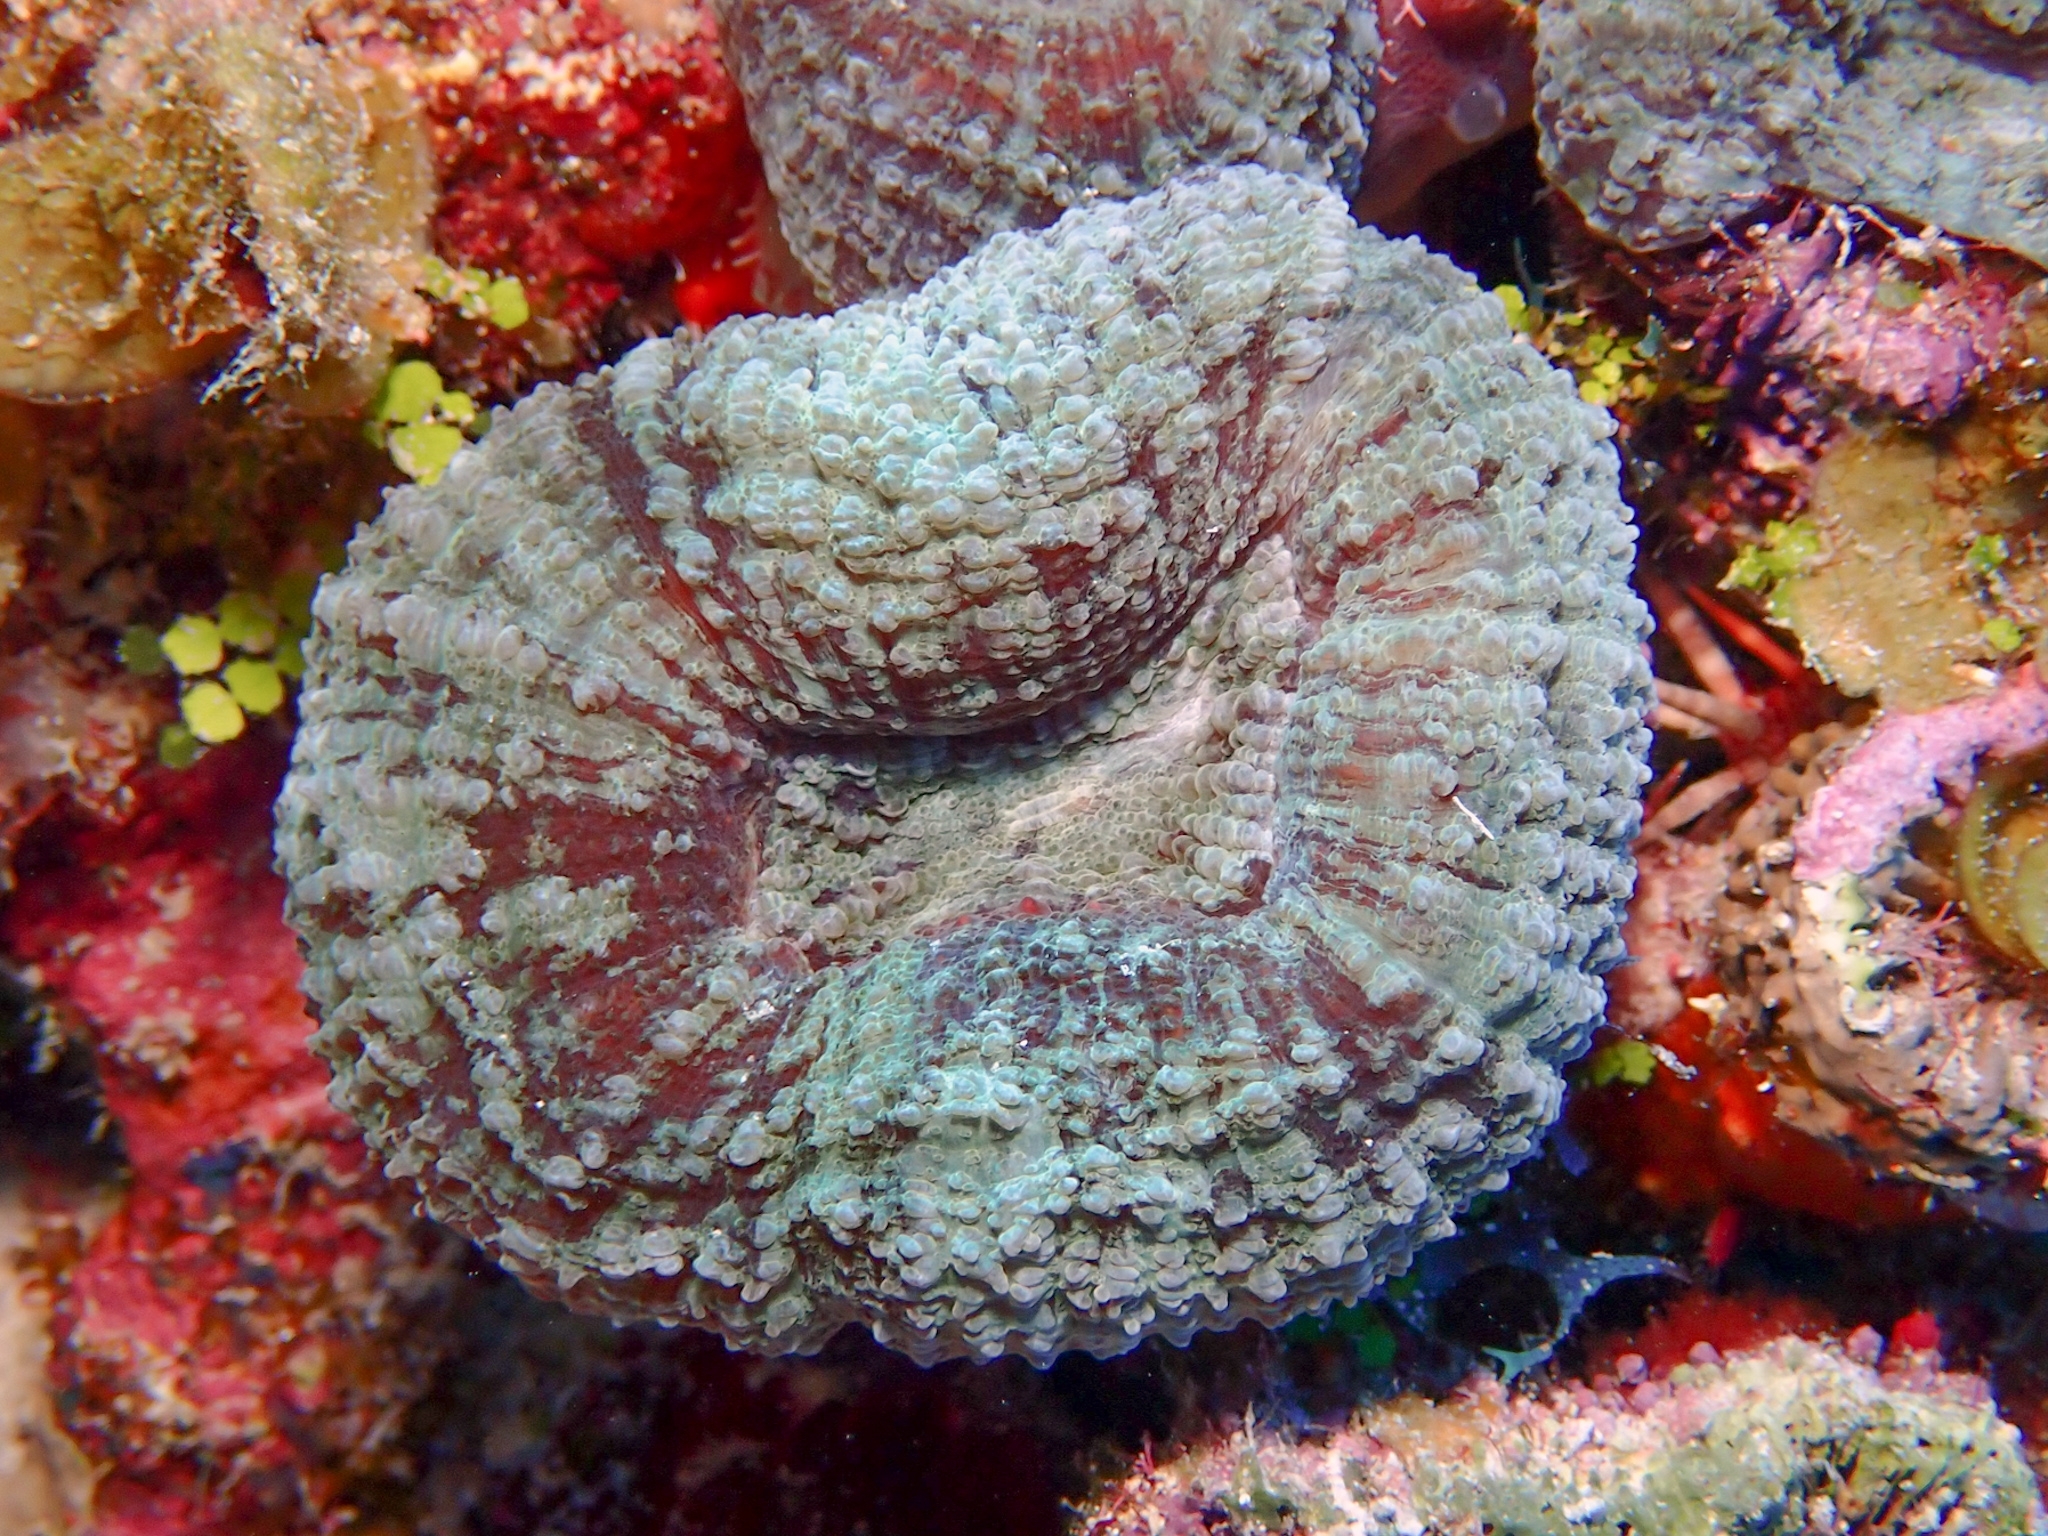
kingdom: Animalia
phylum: Cnidaria
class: Anthozoa
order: Scleractinia
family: Faviidae
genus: Mussa
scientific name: Mussa angulosa
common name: Spiny flower coral
